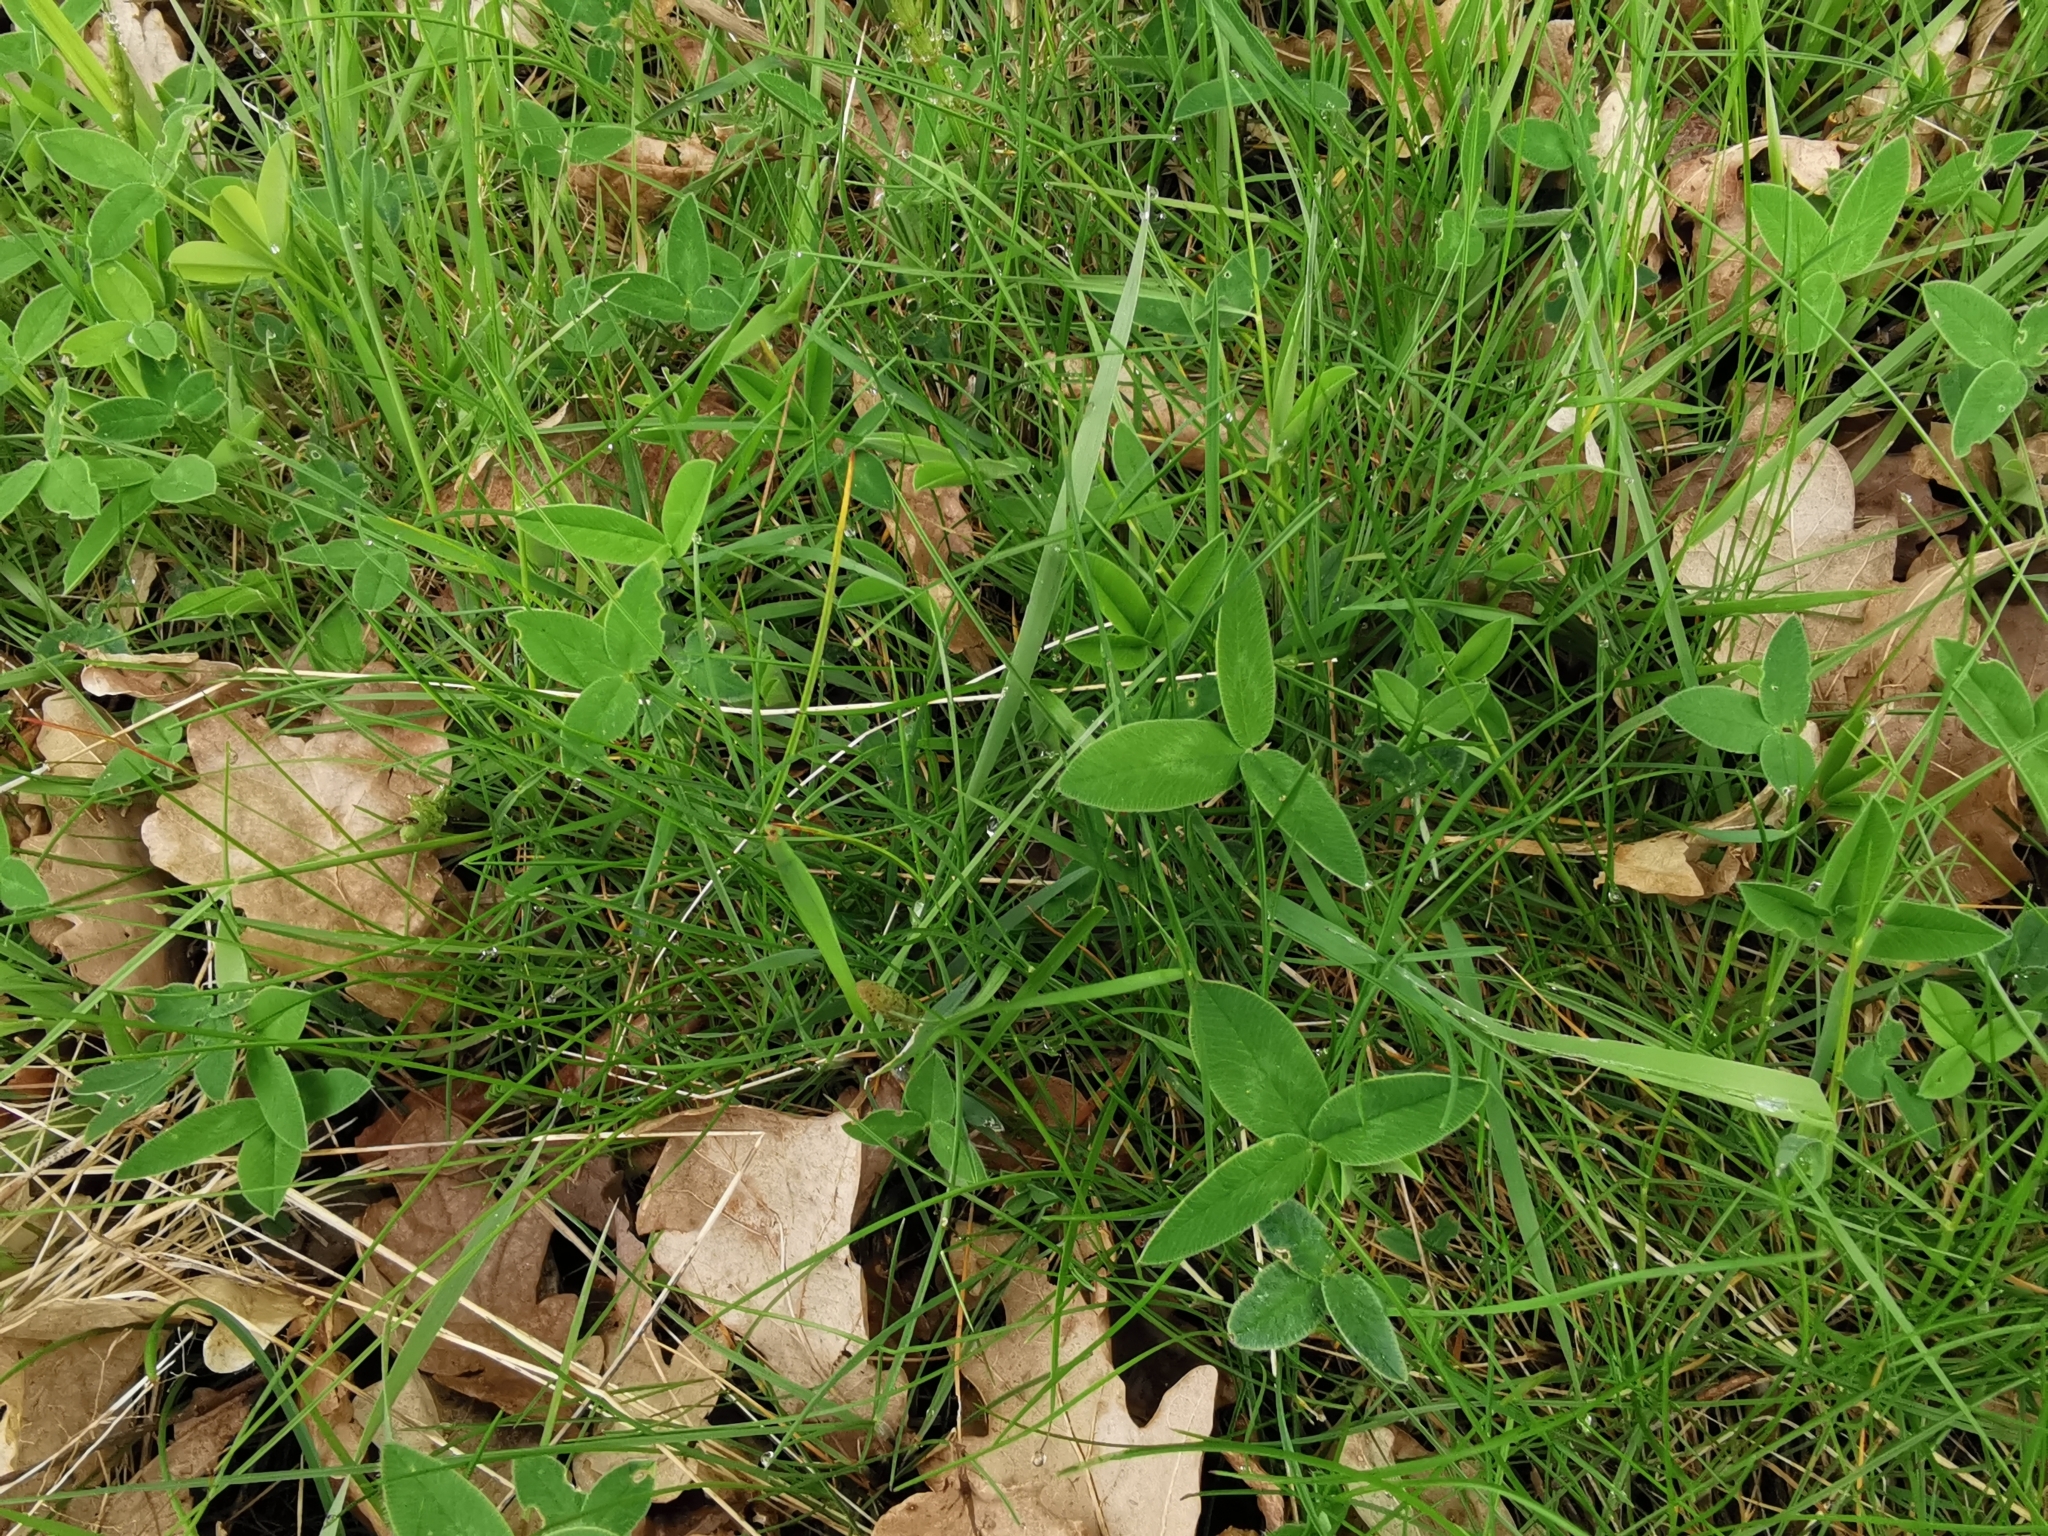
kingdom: Plantae
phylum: Tracheophyta
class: Magnoliopsida
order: Fabales
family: Fabaceae
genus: Trifolium
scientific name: Trifolium medium
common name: Zigzag clover
